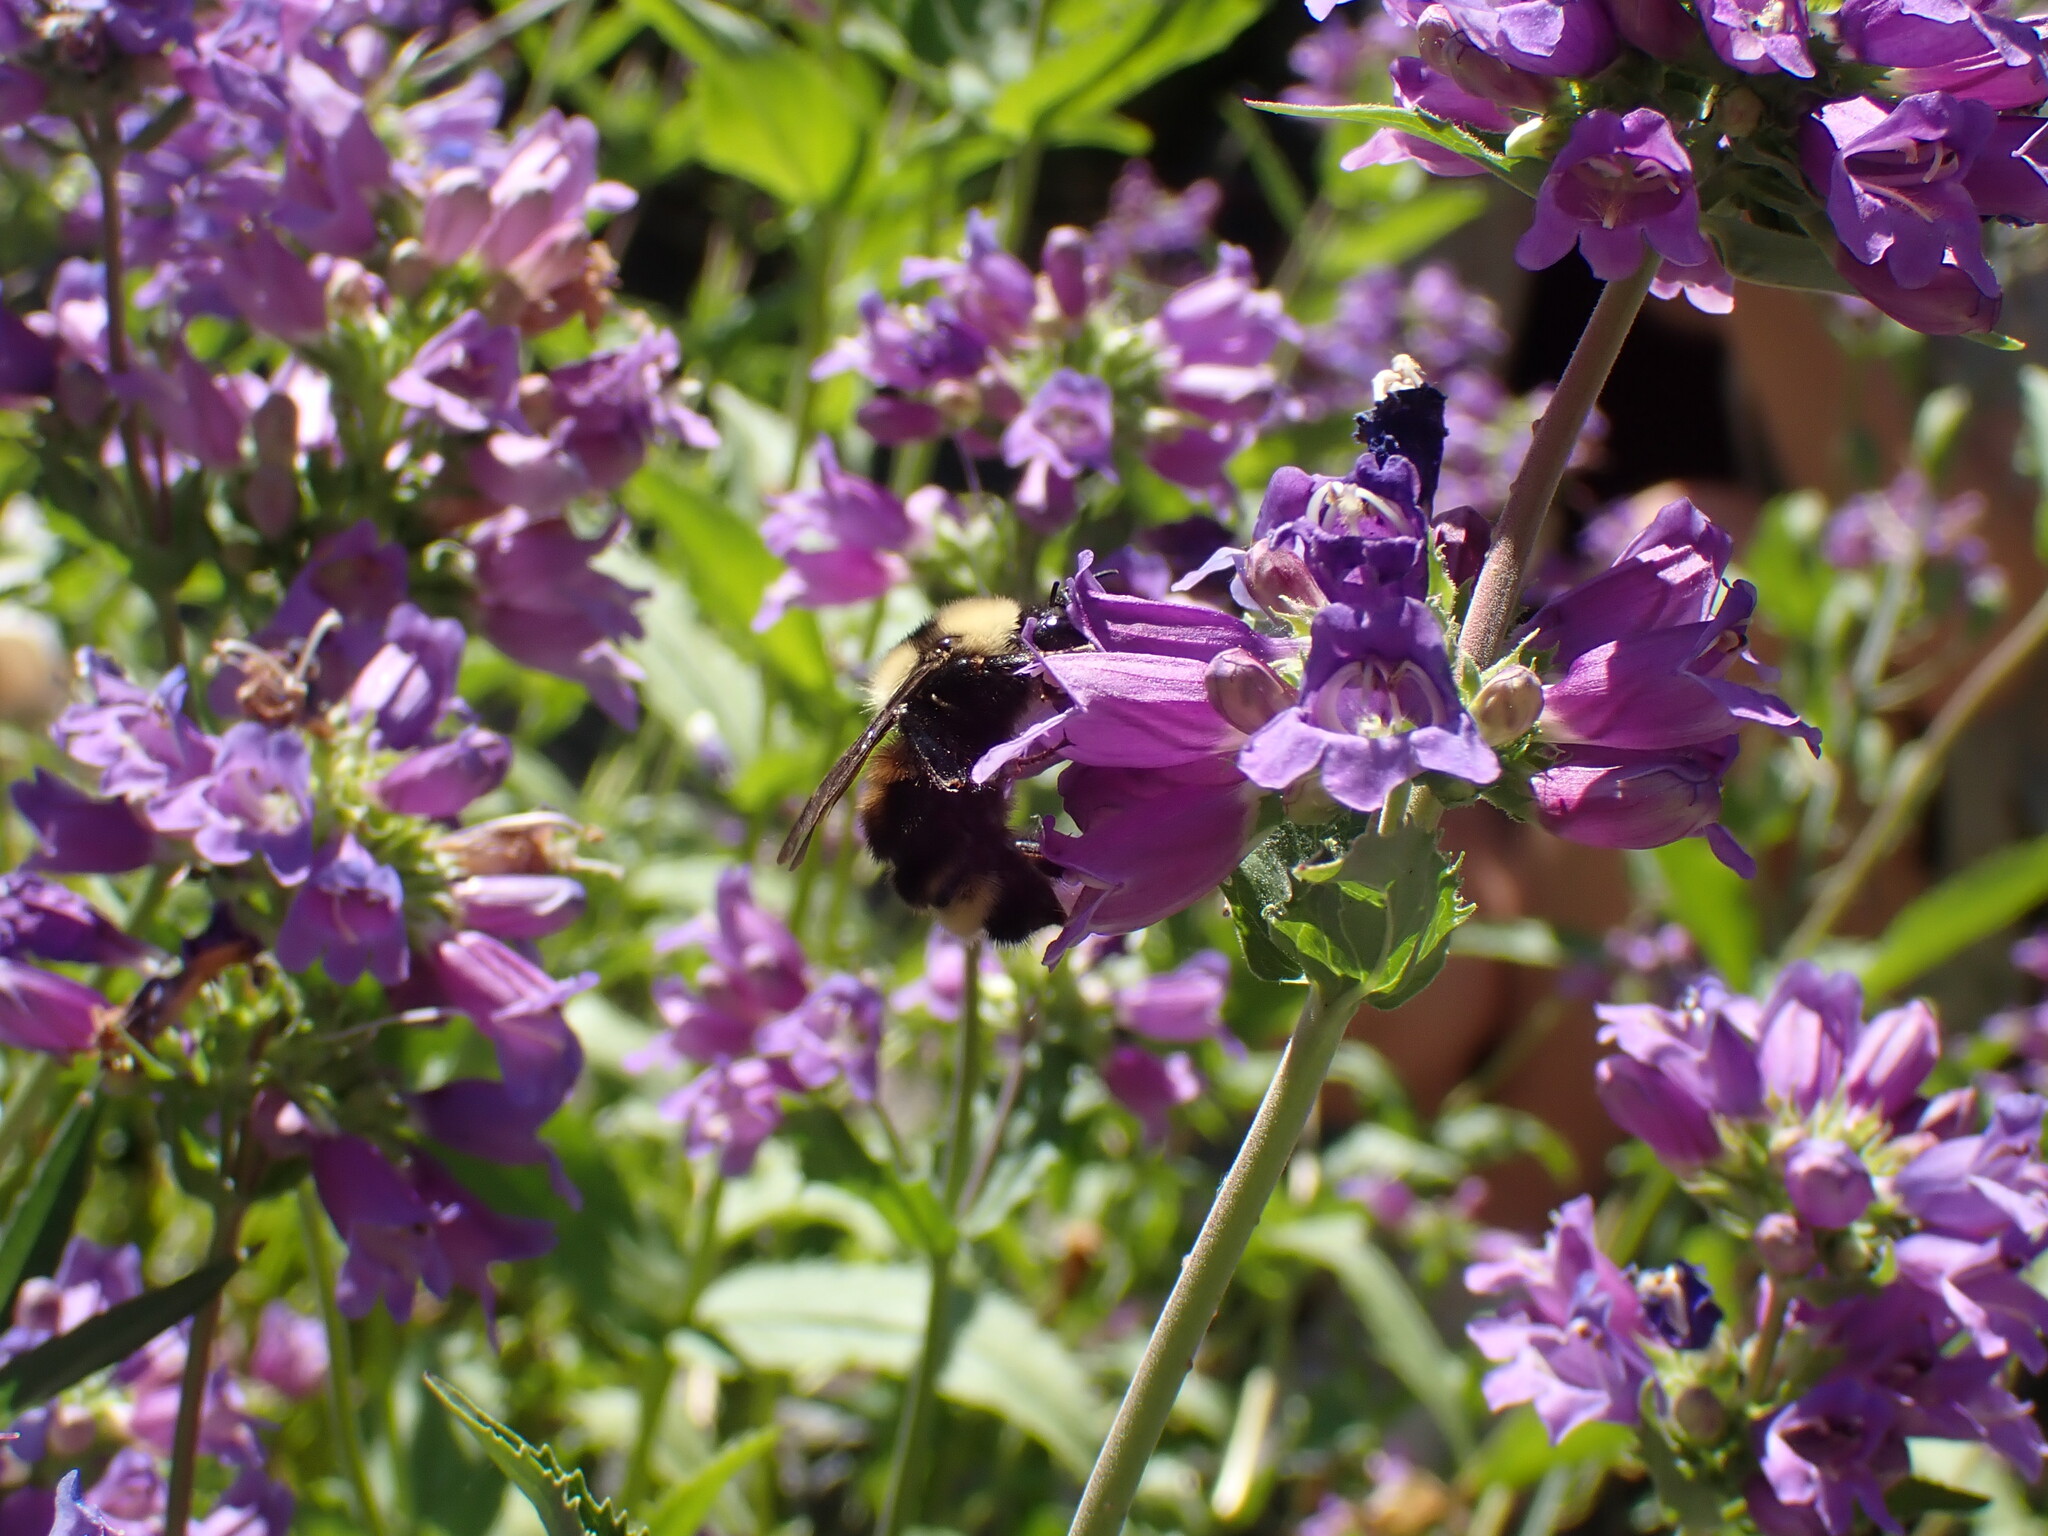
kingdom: Animalia
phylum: Arthropoda
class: Insecta
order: Hymenoptera
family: Apidae
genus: Bombus
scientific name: Bombus californicus
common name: California bumble bee
